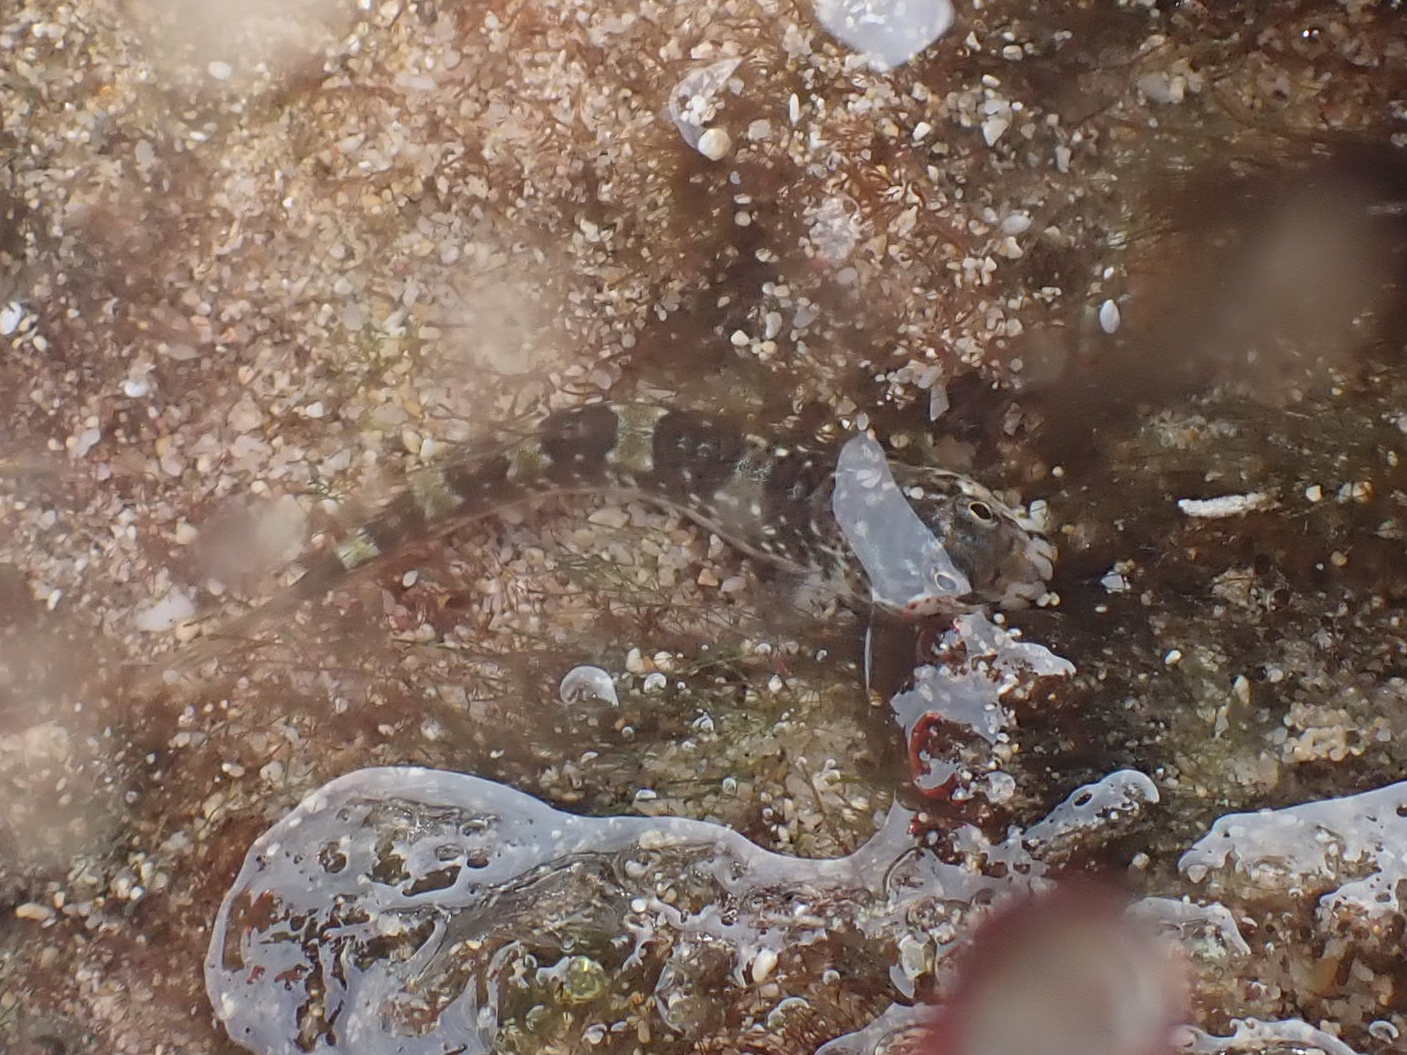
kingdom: Animalia
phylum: Chordata
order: Perciformes
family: Blenniidae
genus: Entomacrodus
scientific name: Entomacrodus nigricans
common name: Pearl blenny
